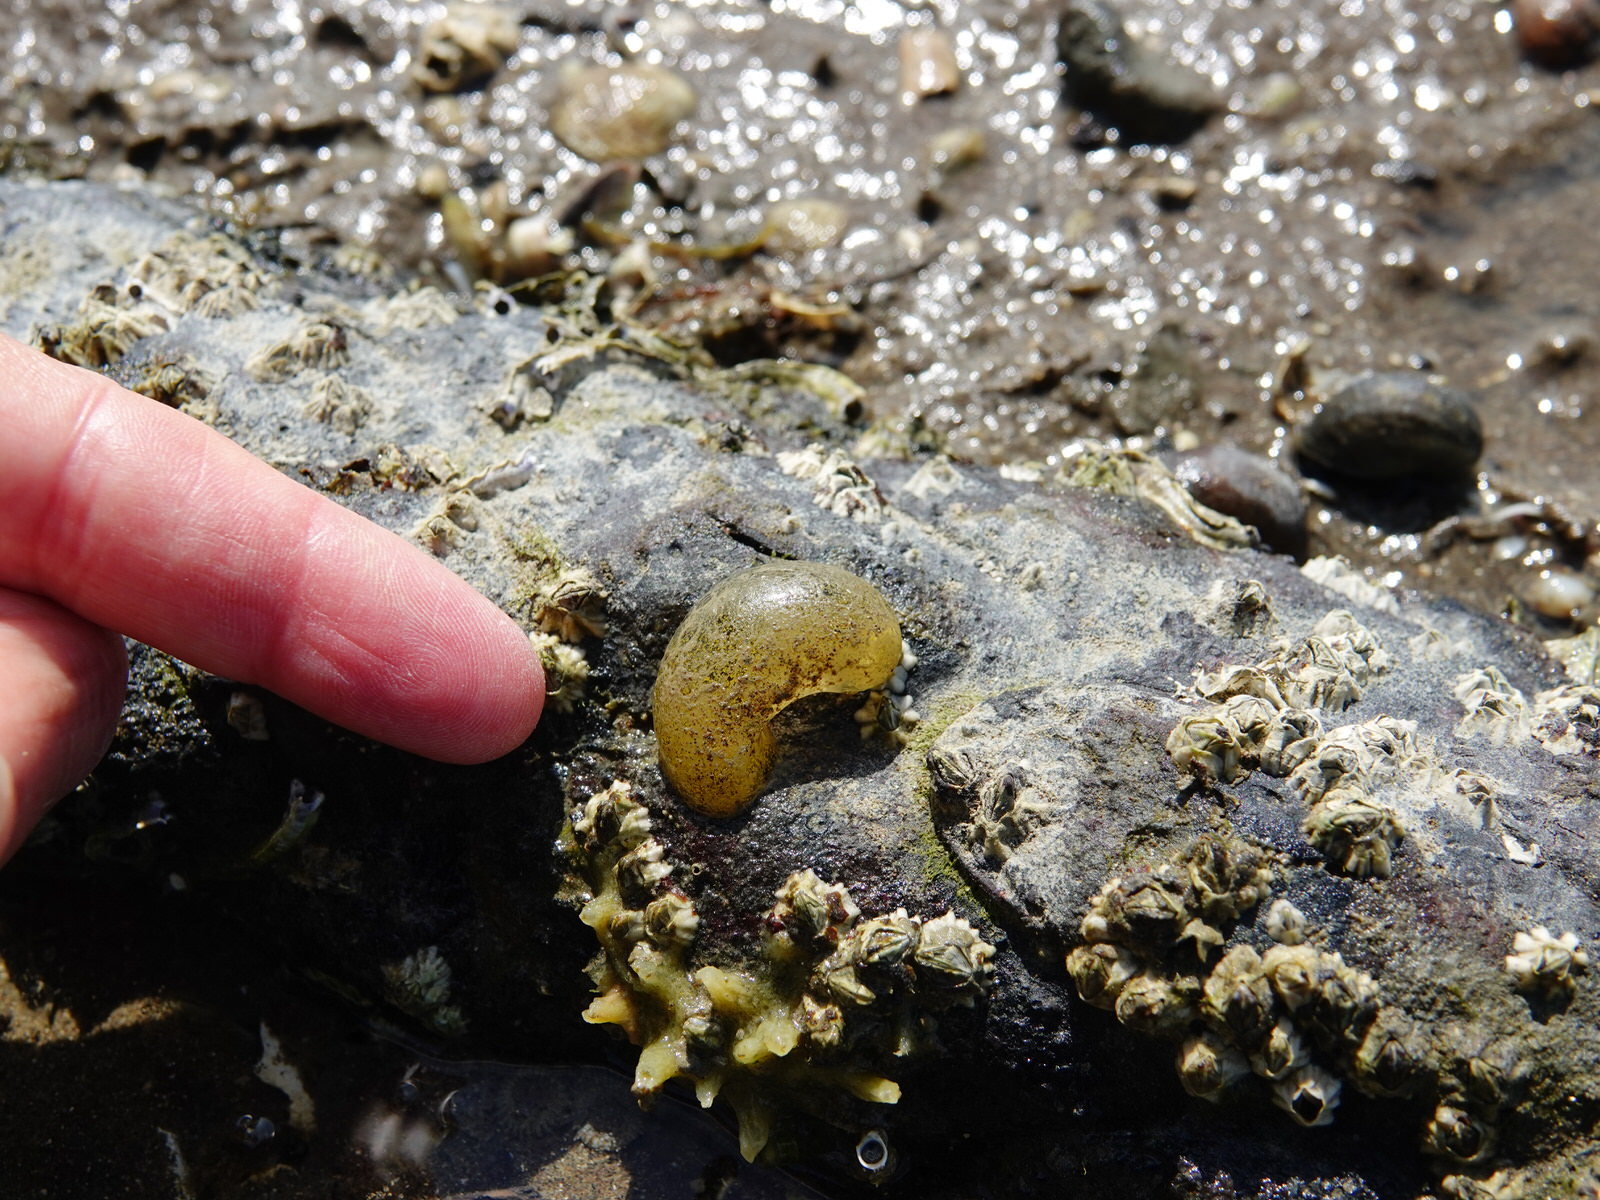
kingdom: Animalia
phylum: Mollusca
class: Gastropoda
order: Cephalaspidea
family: Haminoeidae
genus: Papawera
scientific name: Papawera zelandiae
